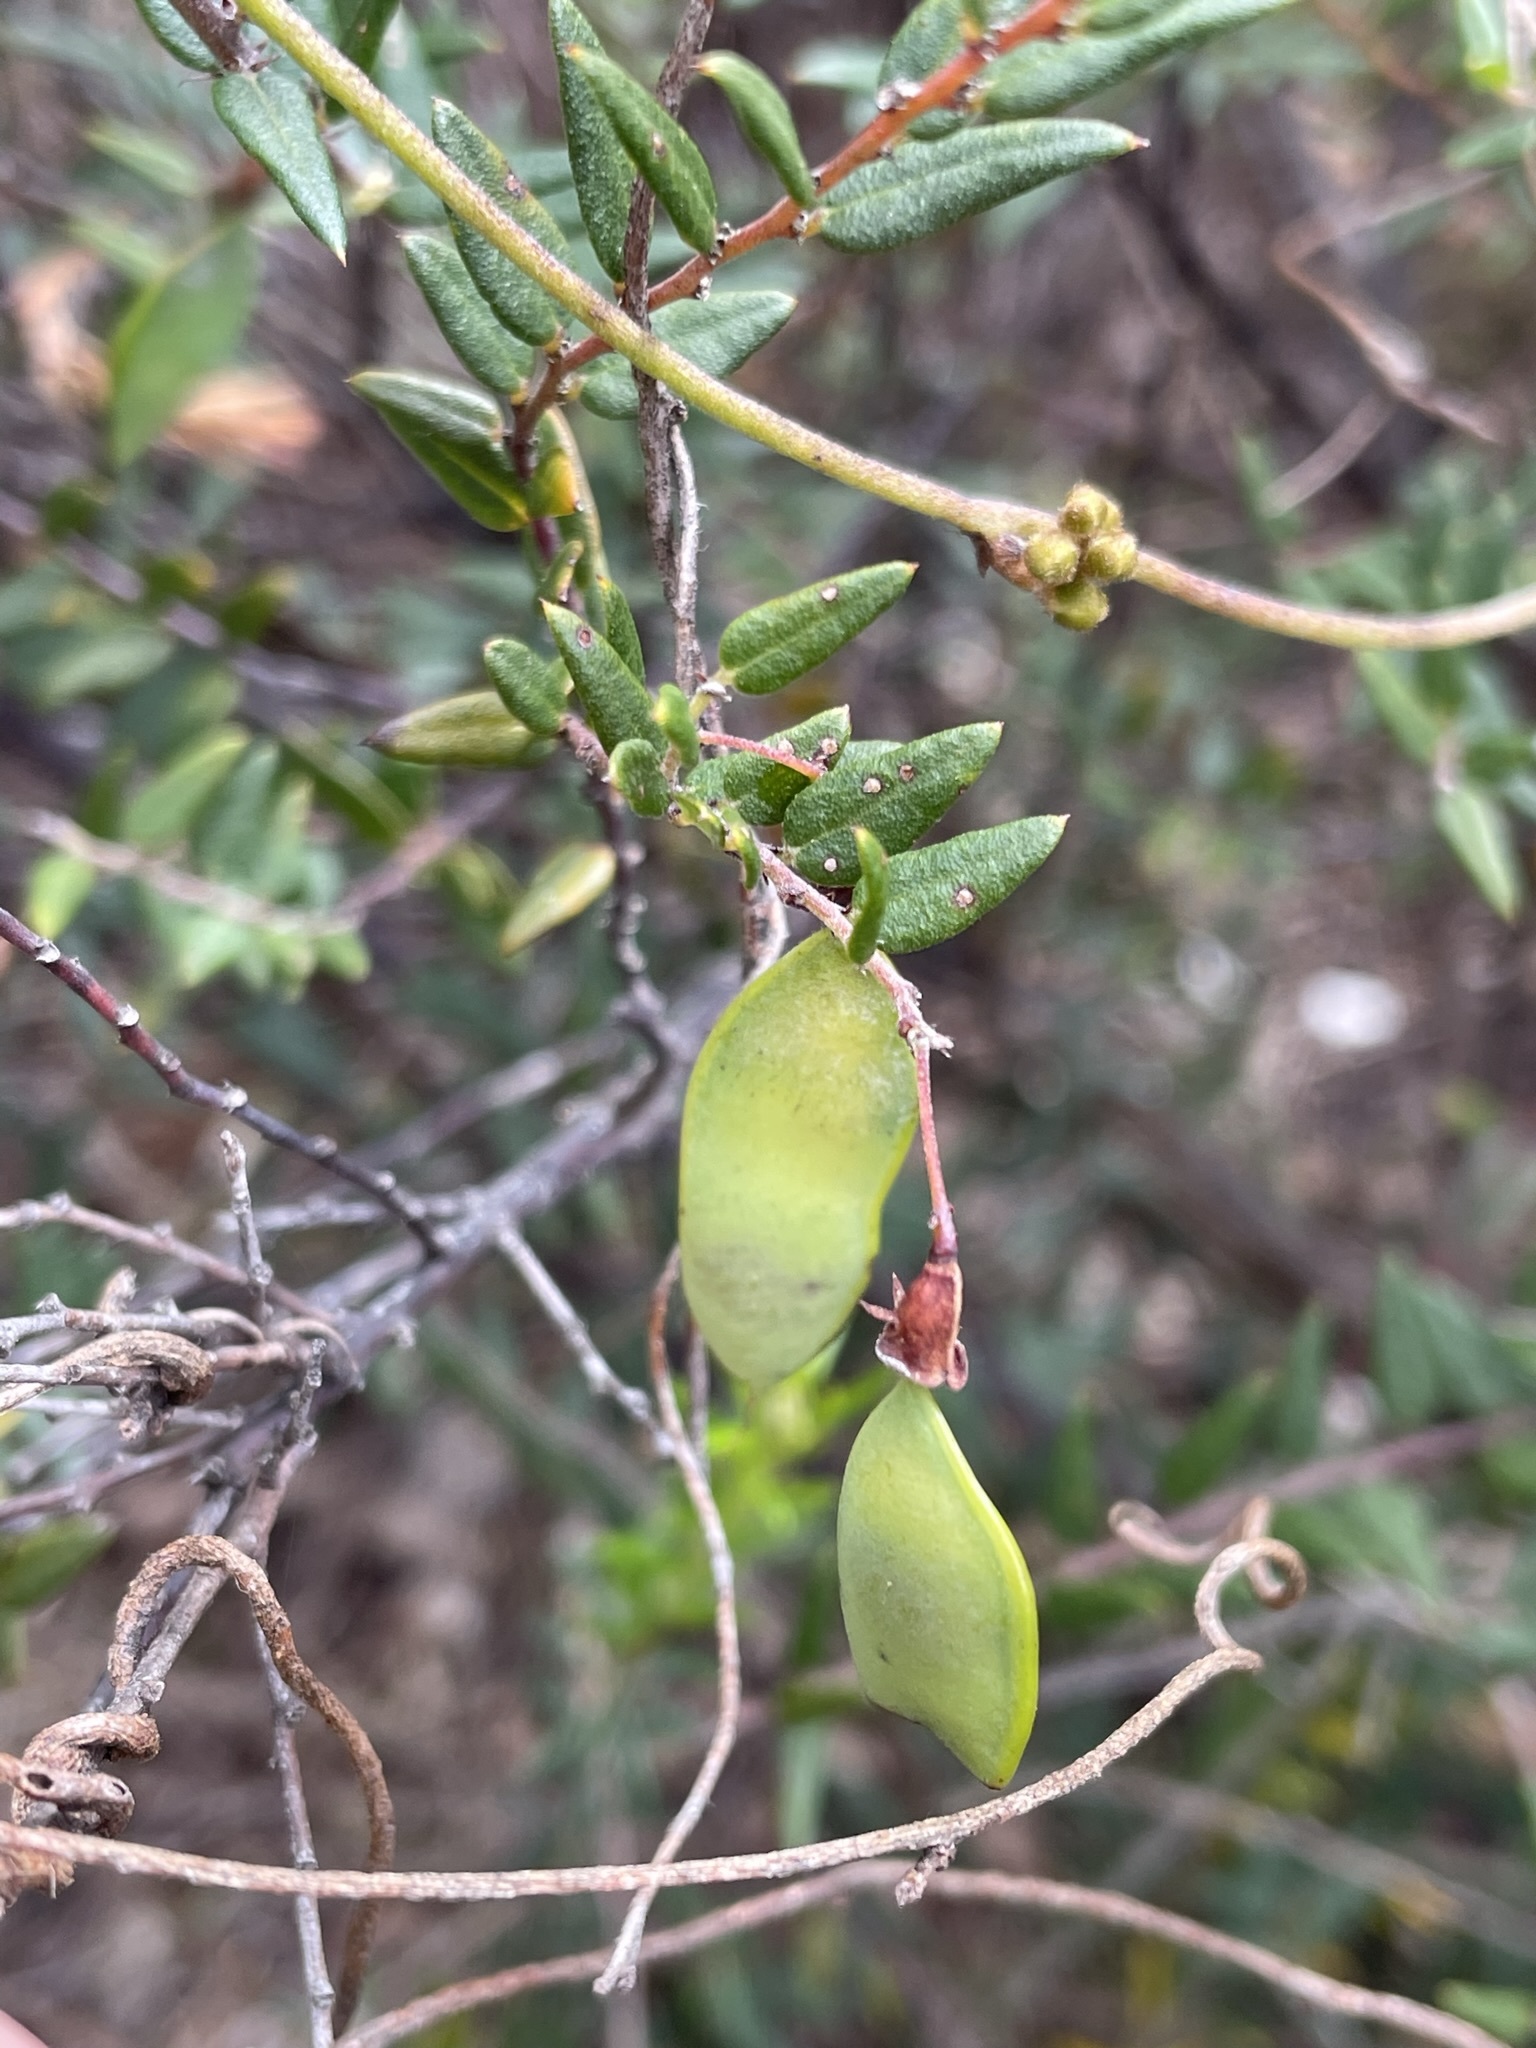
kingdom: Plantae
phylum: Tracheophyta
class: Magnoliopsida
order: Fabales
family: Fabaceae
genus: Bossiaea
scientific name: Bossiaea cinerea
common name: Showy bossiaea
